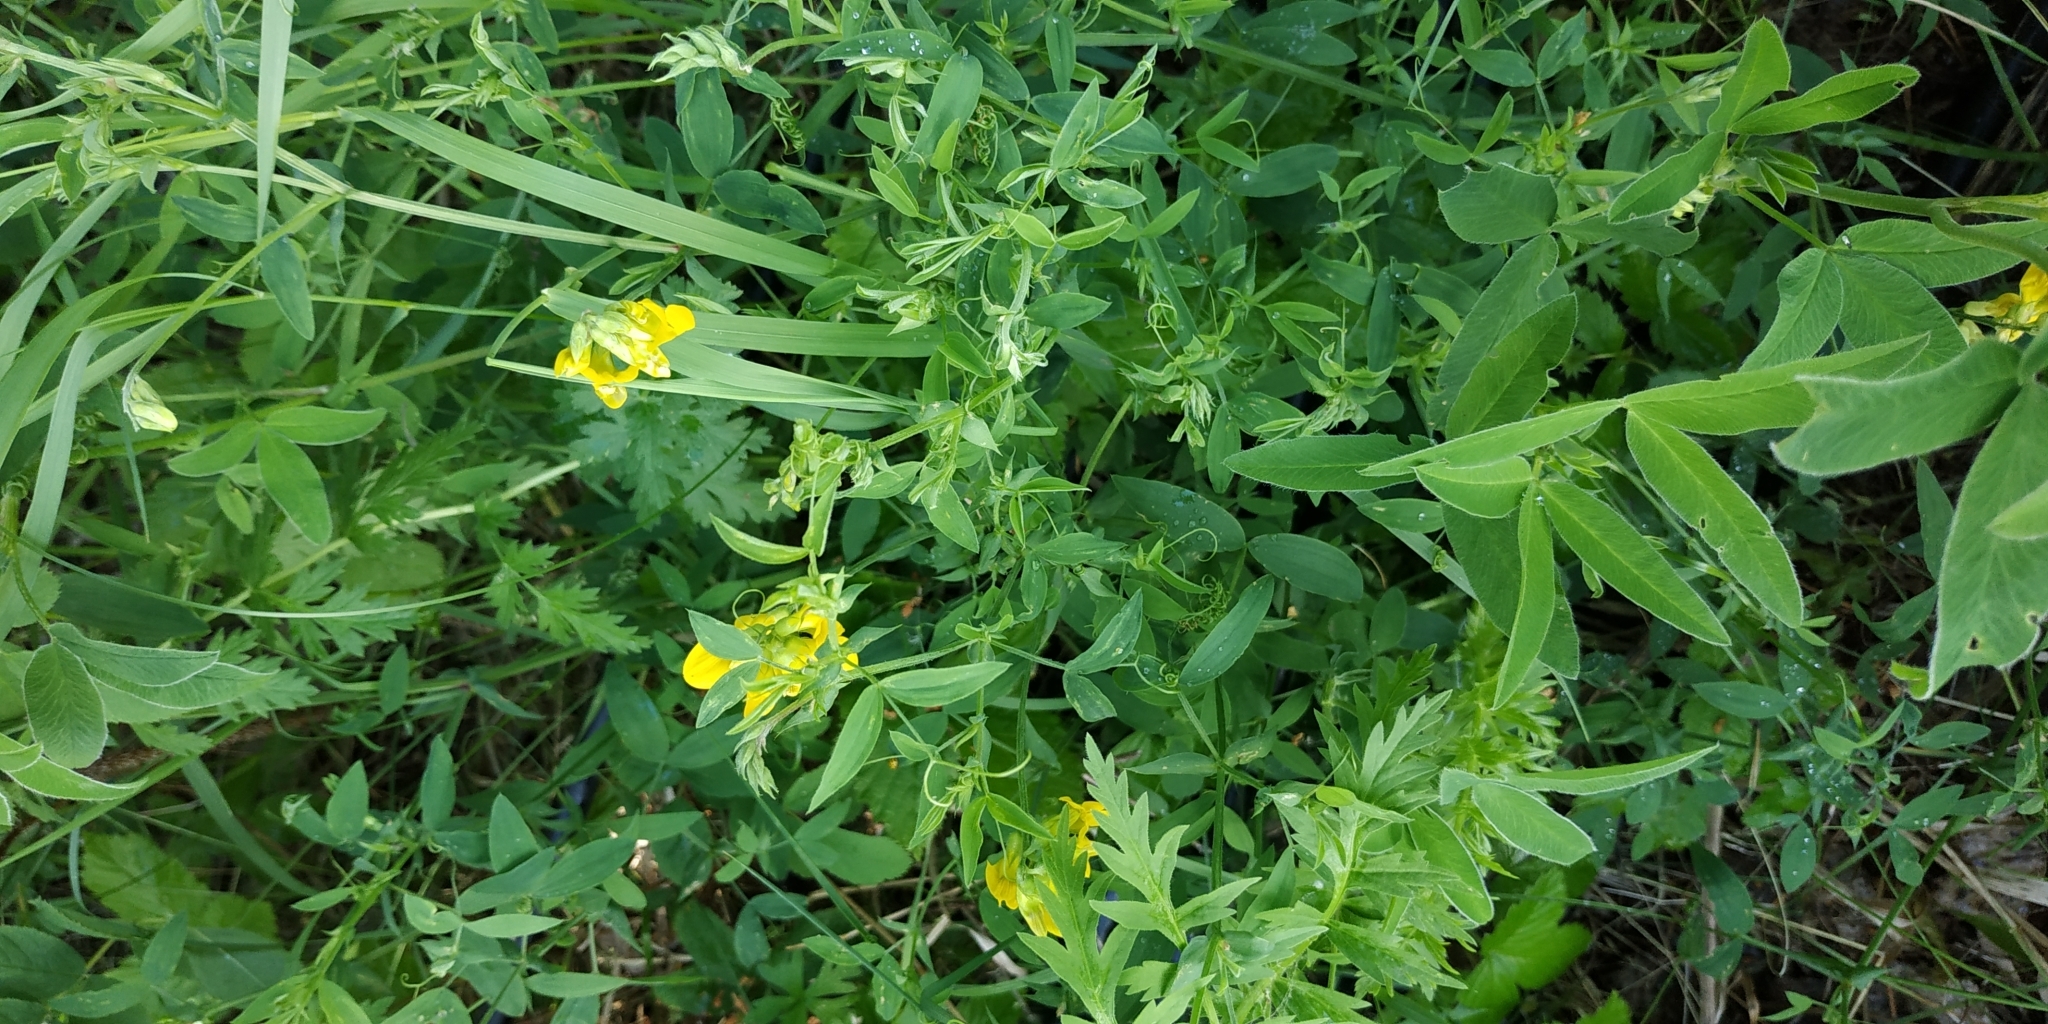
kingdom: Plantae
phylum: Tracheophyta
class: Magnoliopsida
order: Fabales
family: Fabaceae
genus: Lathyrus
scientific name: Lathyrus pratensis
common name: Meadow vetchling
